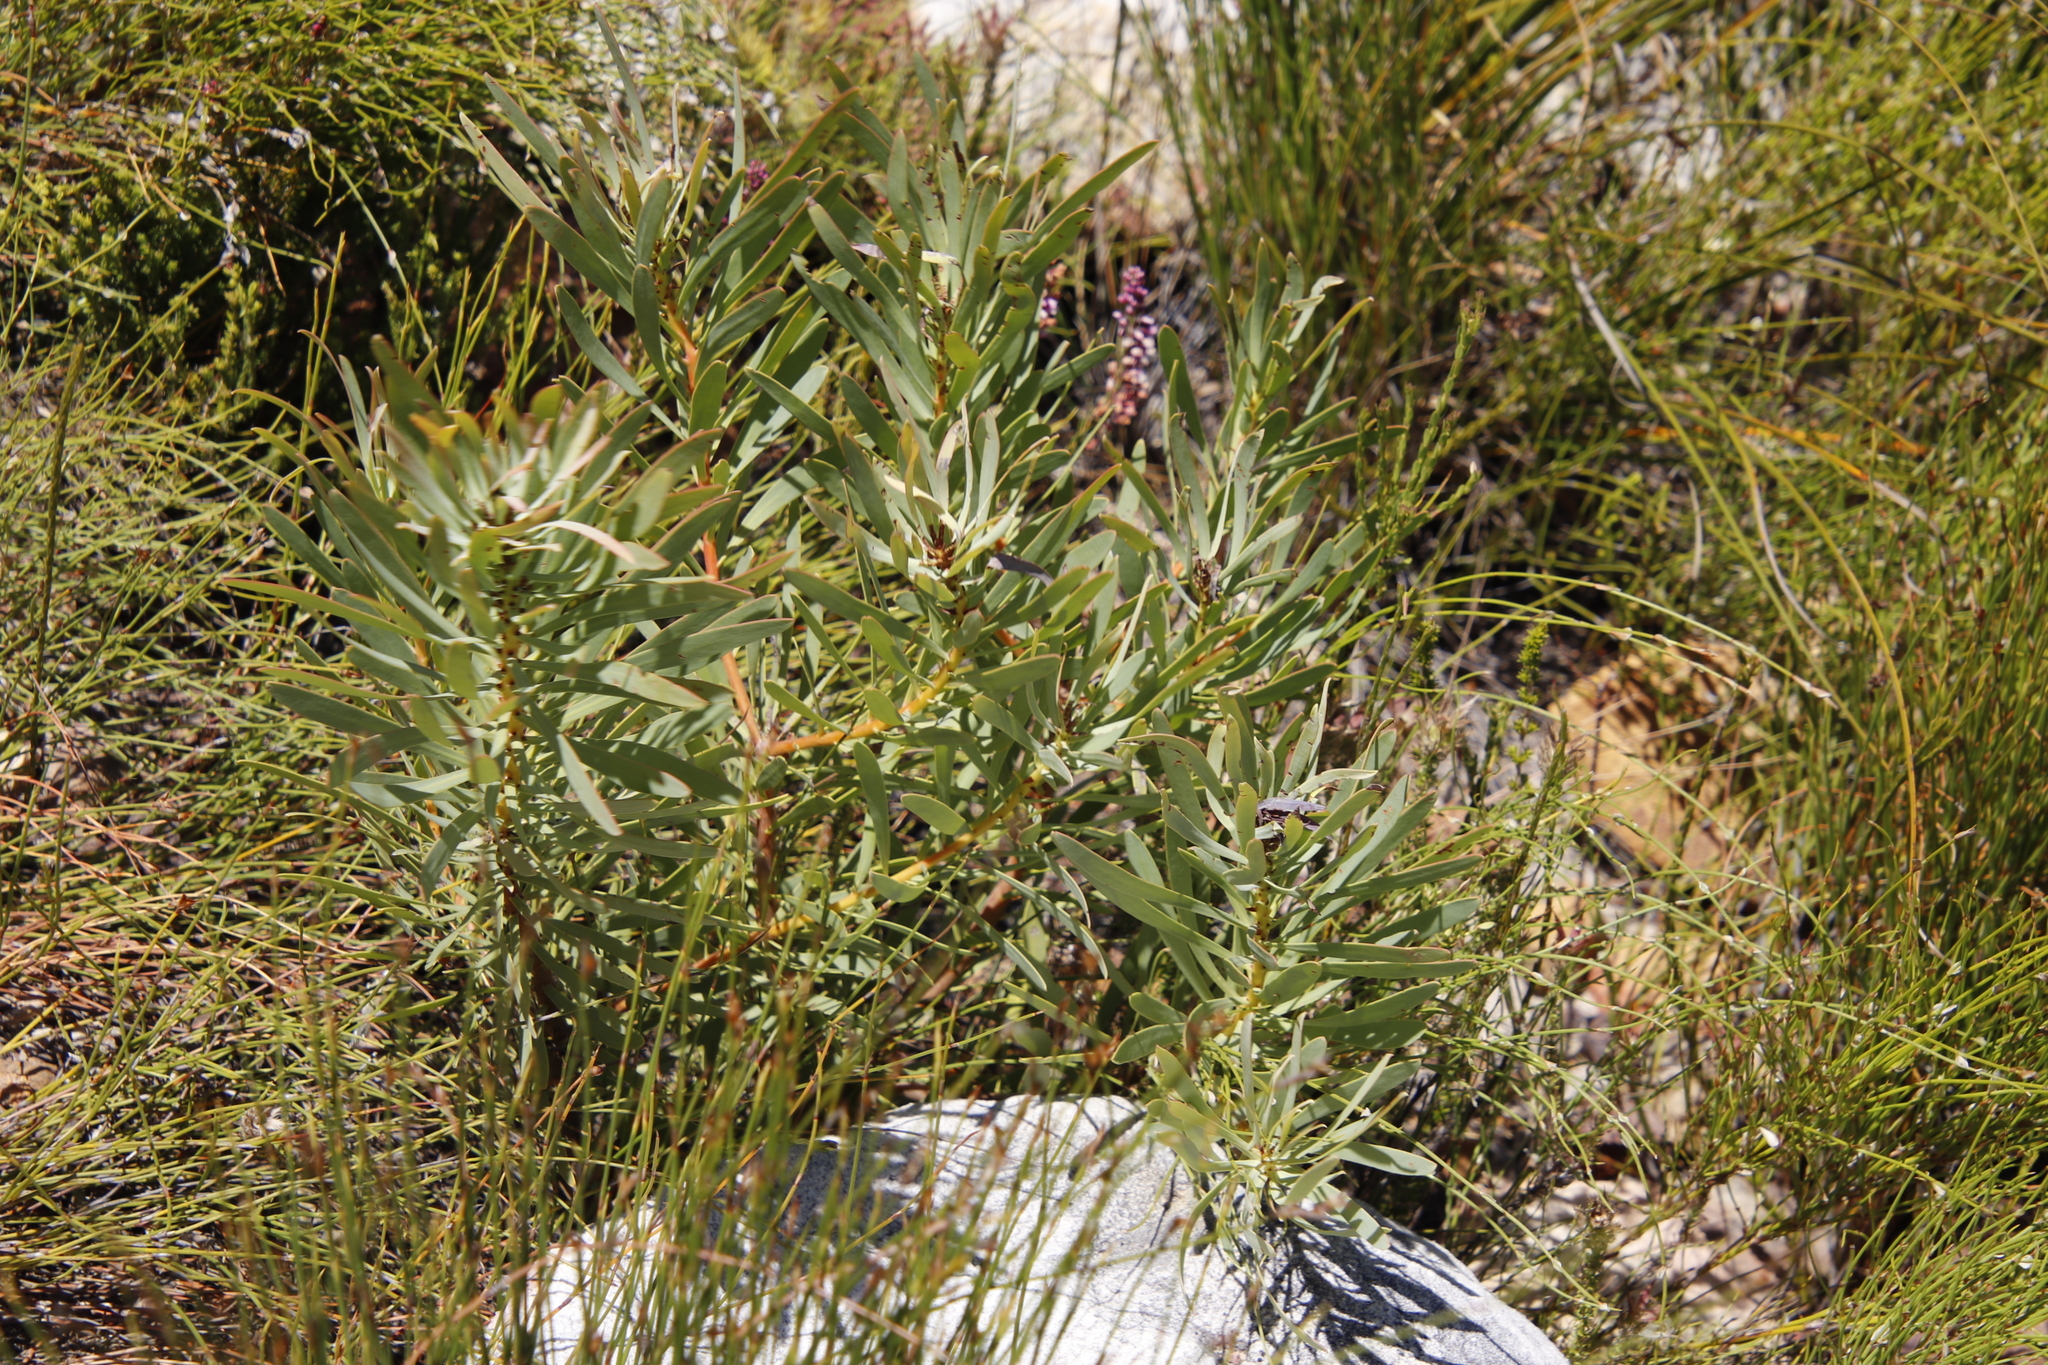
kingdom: Plantae
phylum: Tracheophyta
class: Magnoliopsida
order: Proteales
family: Proteaceae
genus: Protea
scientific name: Protea repens
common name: Sugarbush
